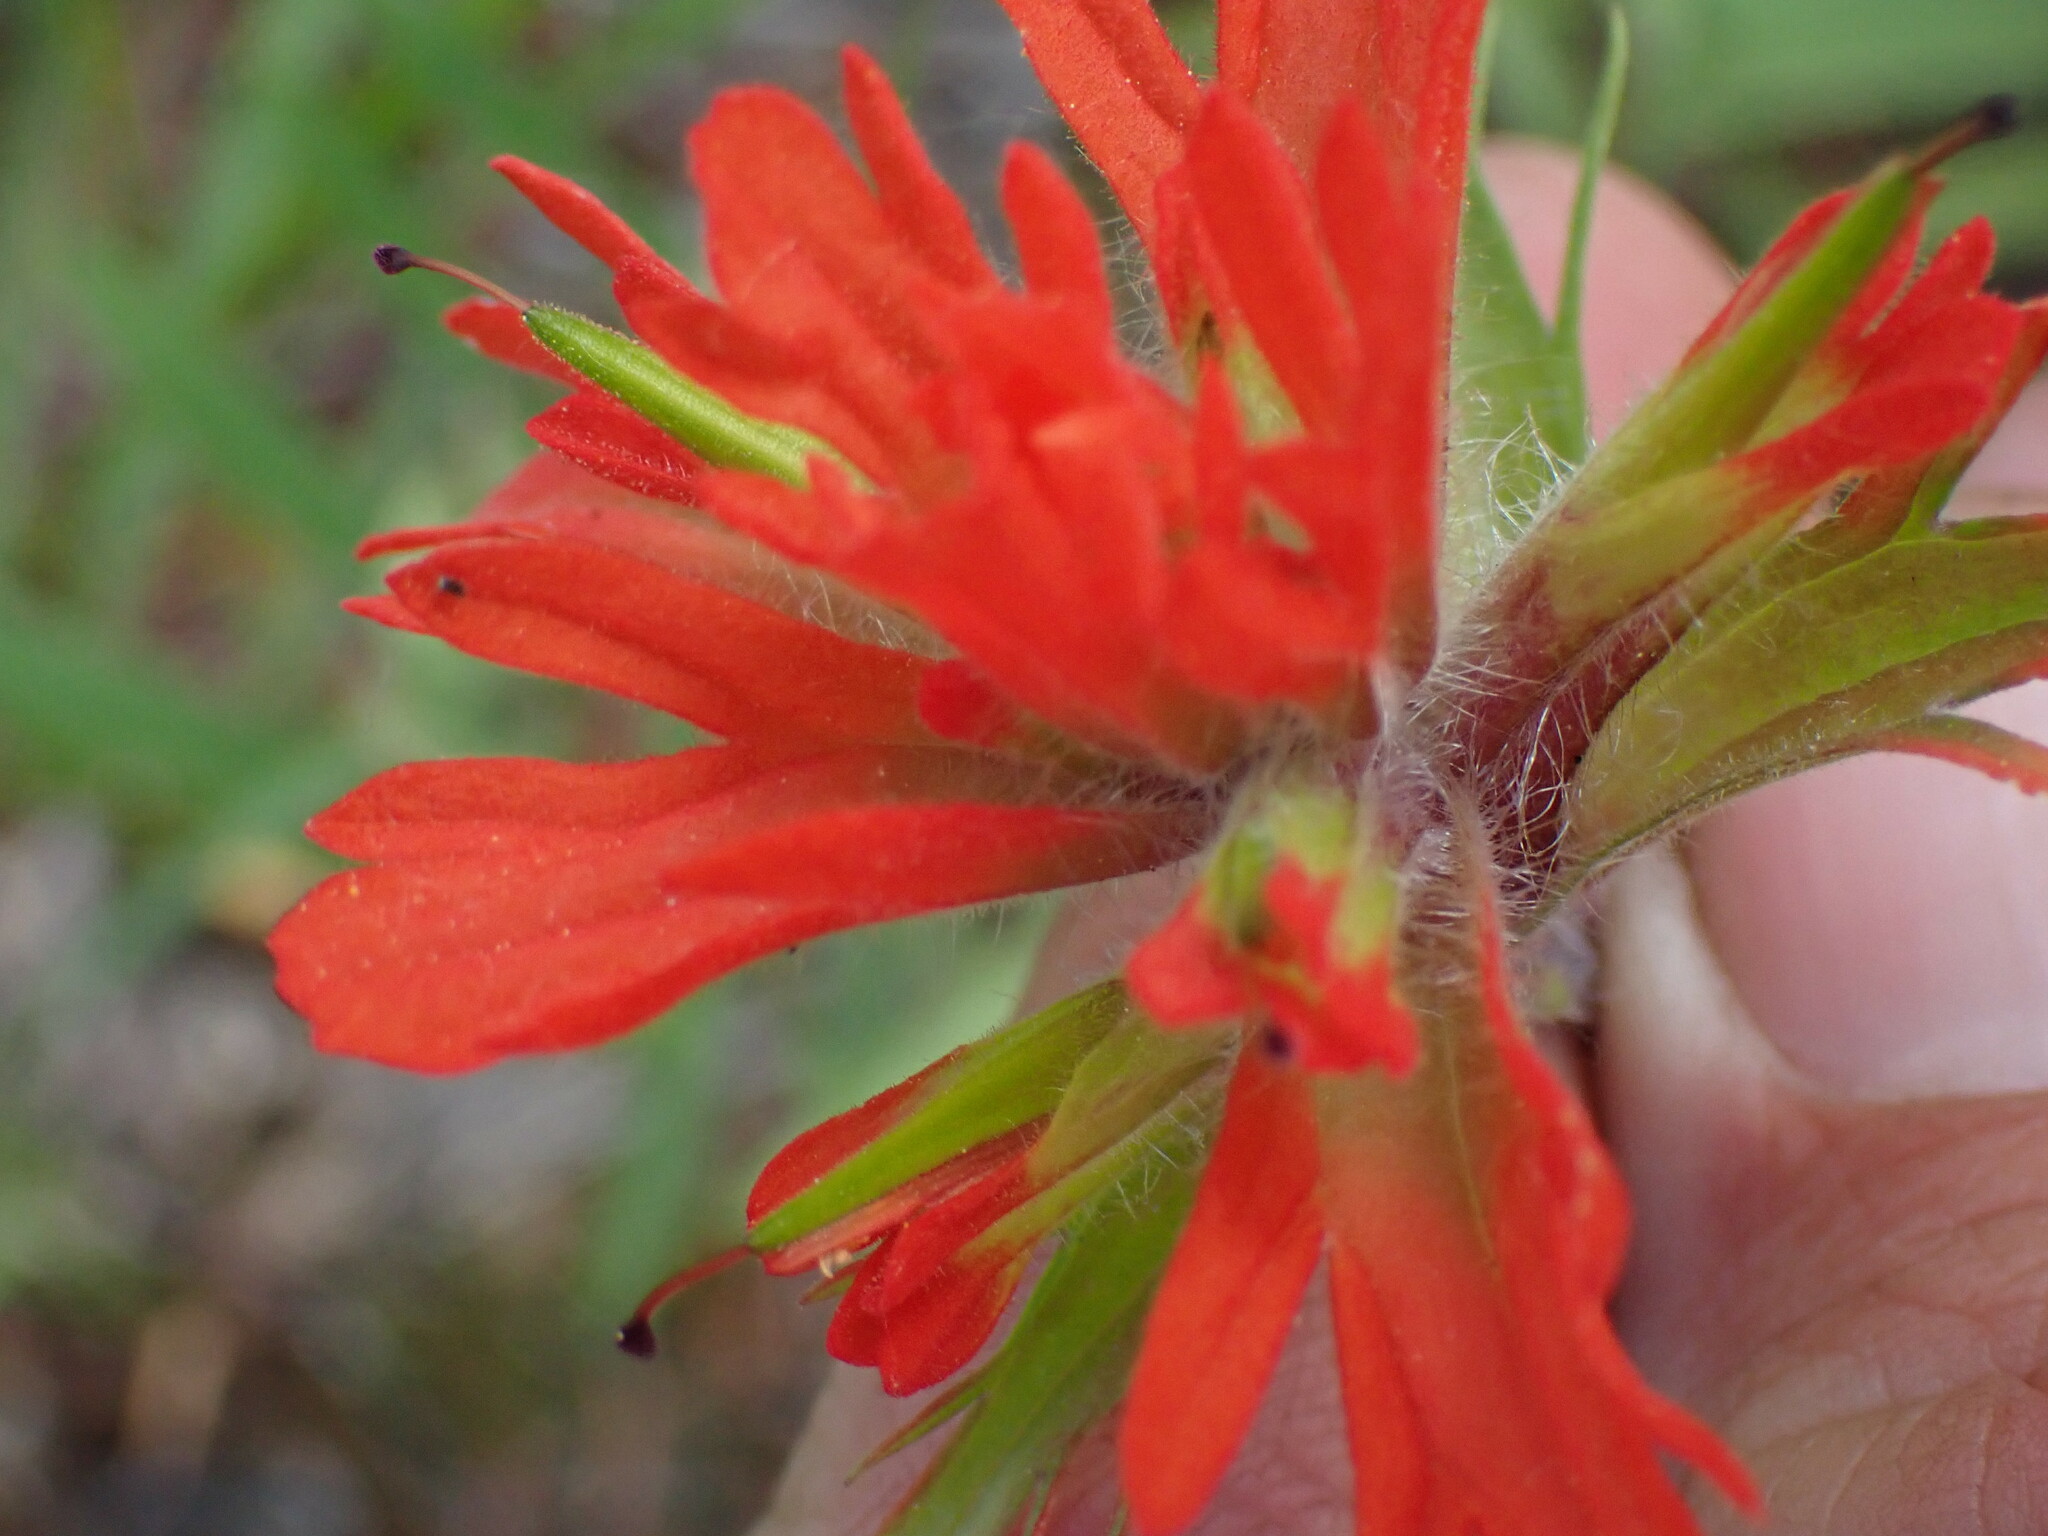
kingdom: Plantae
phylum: Tracheophyta
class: Magnoliopsida
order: Lamiales
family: Orobanchaceae
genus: Castilleja
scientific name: Castilleja hispida
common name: Bristly paintbrush
